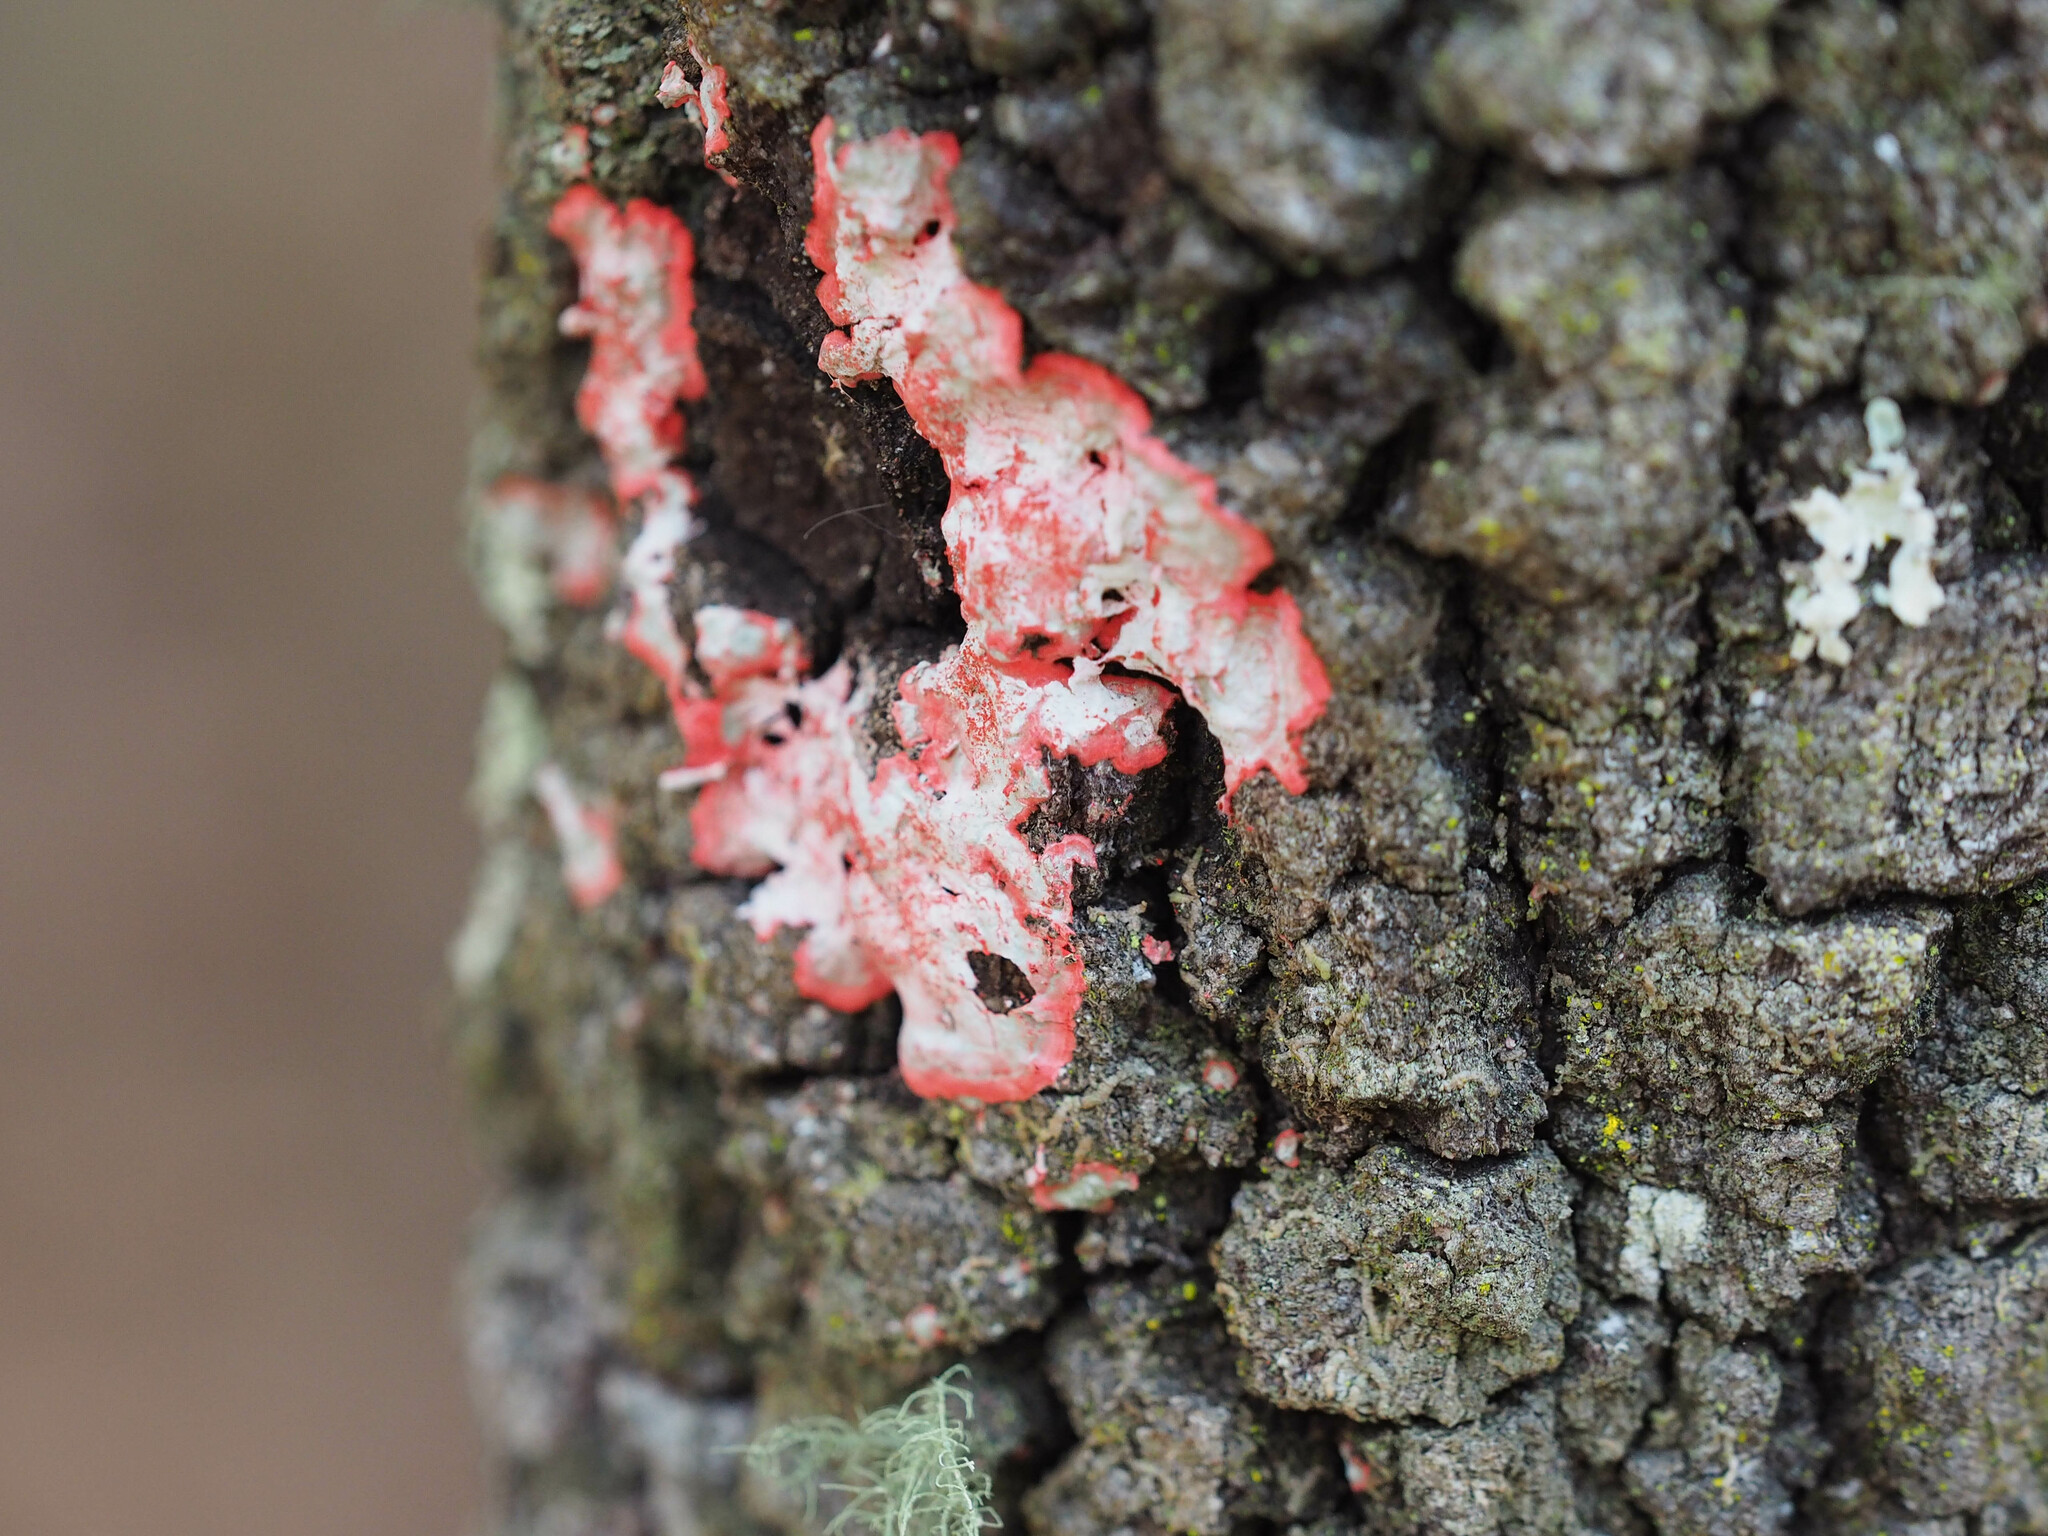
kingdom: Fungi
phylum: Ascomycota
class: Arthoniomycetes
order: Arthoniales
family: Arthoniaceae
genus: Herpothallon
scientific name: Herpothallon rubrocinctum
